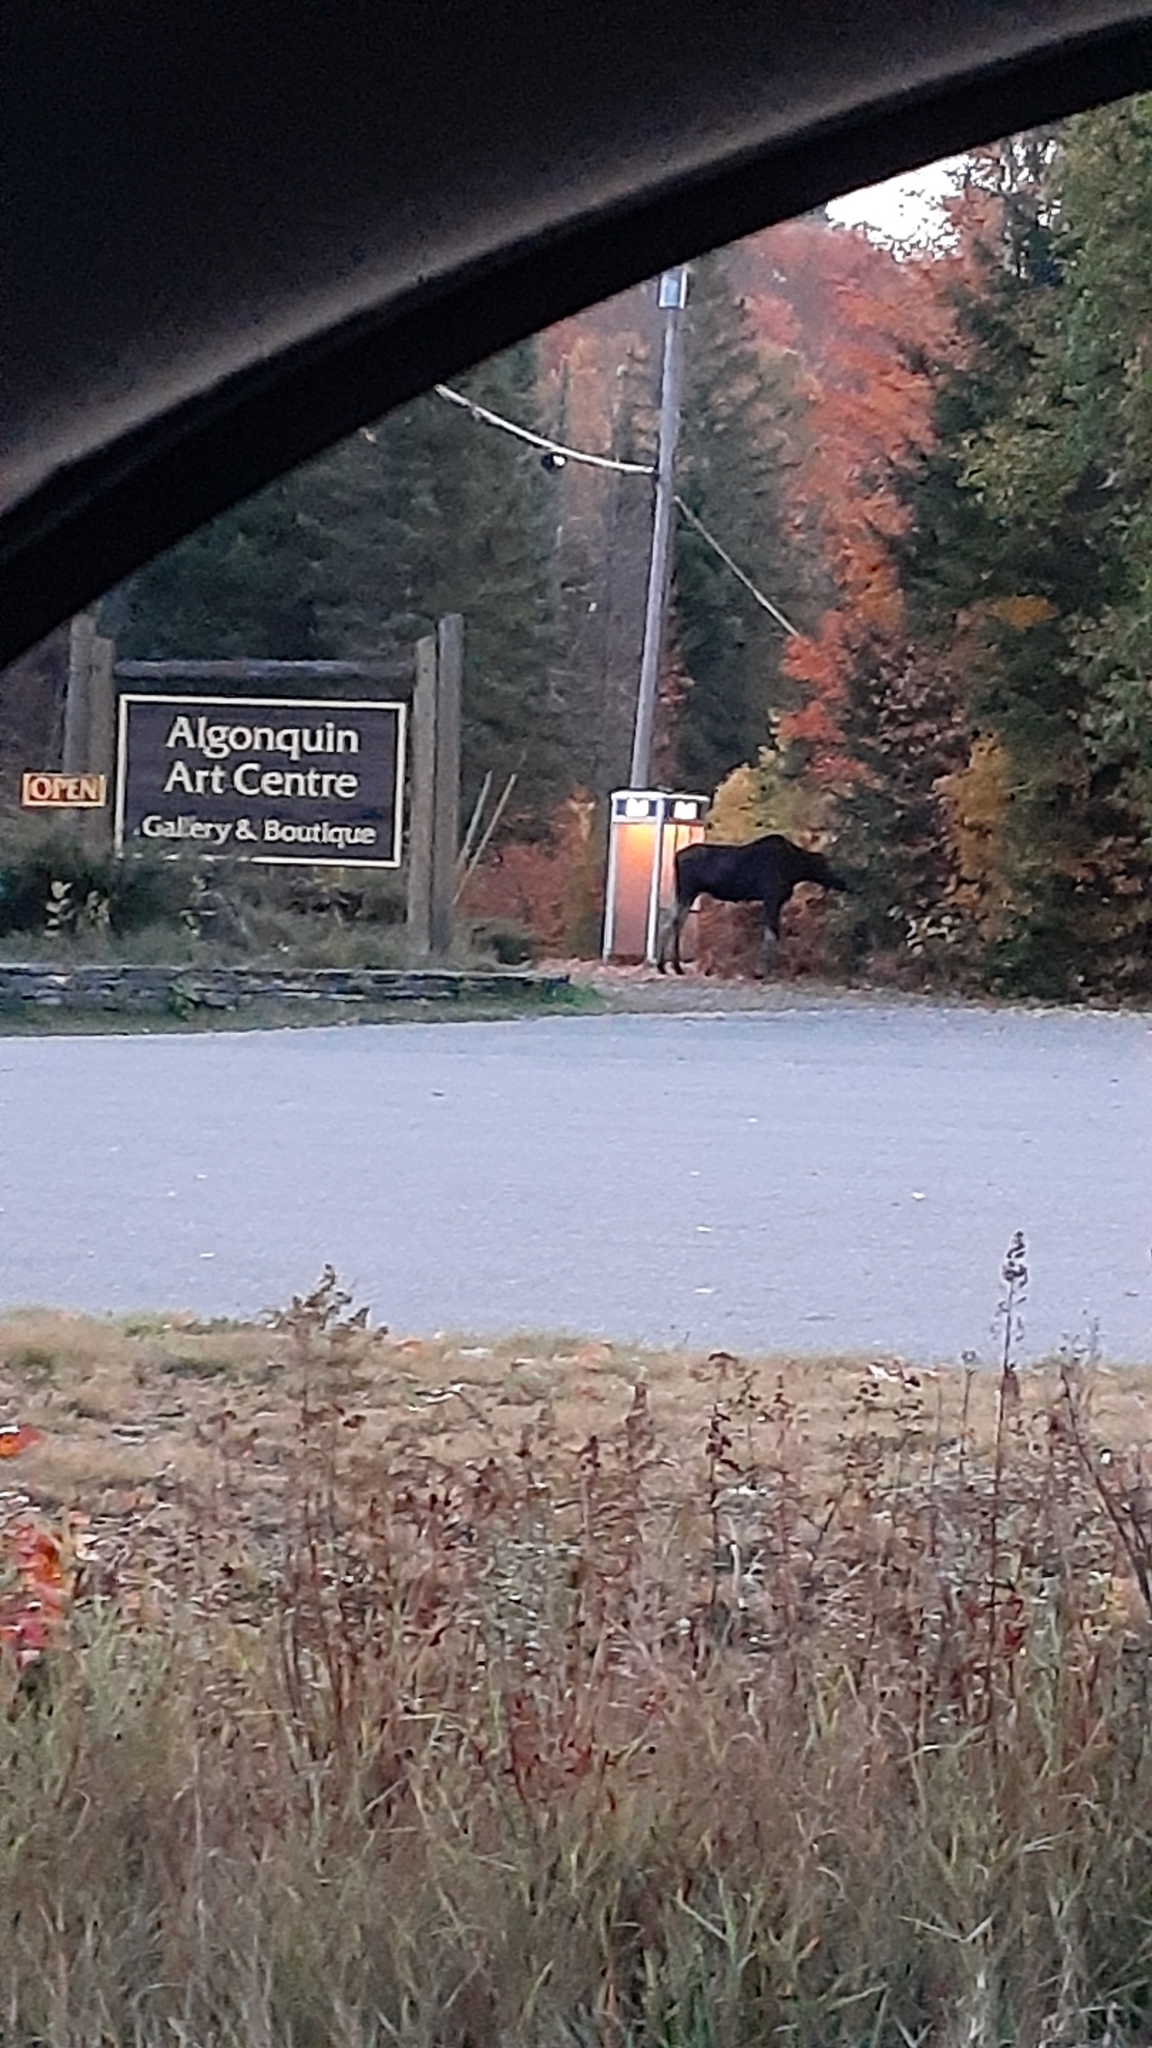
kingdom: Animalia
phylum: Chordata
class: Mammalia
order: Artiodactyla
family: Cervidae
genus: Alces
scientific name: Alces americanus
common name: Moose
